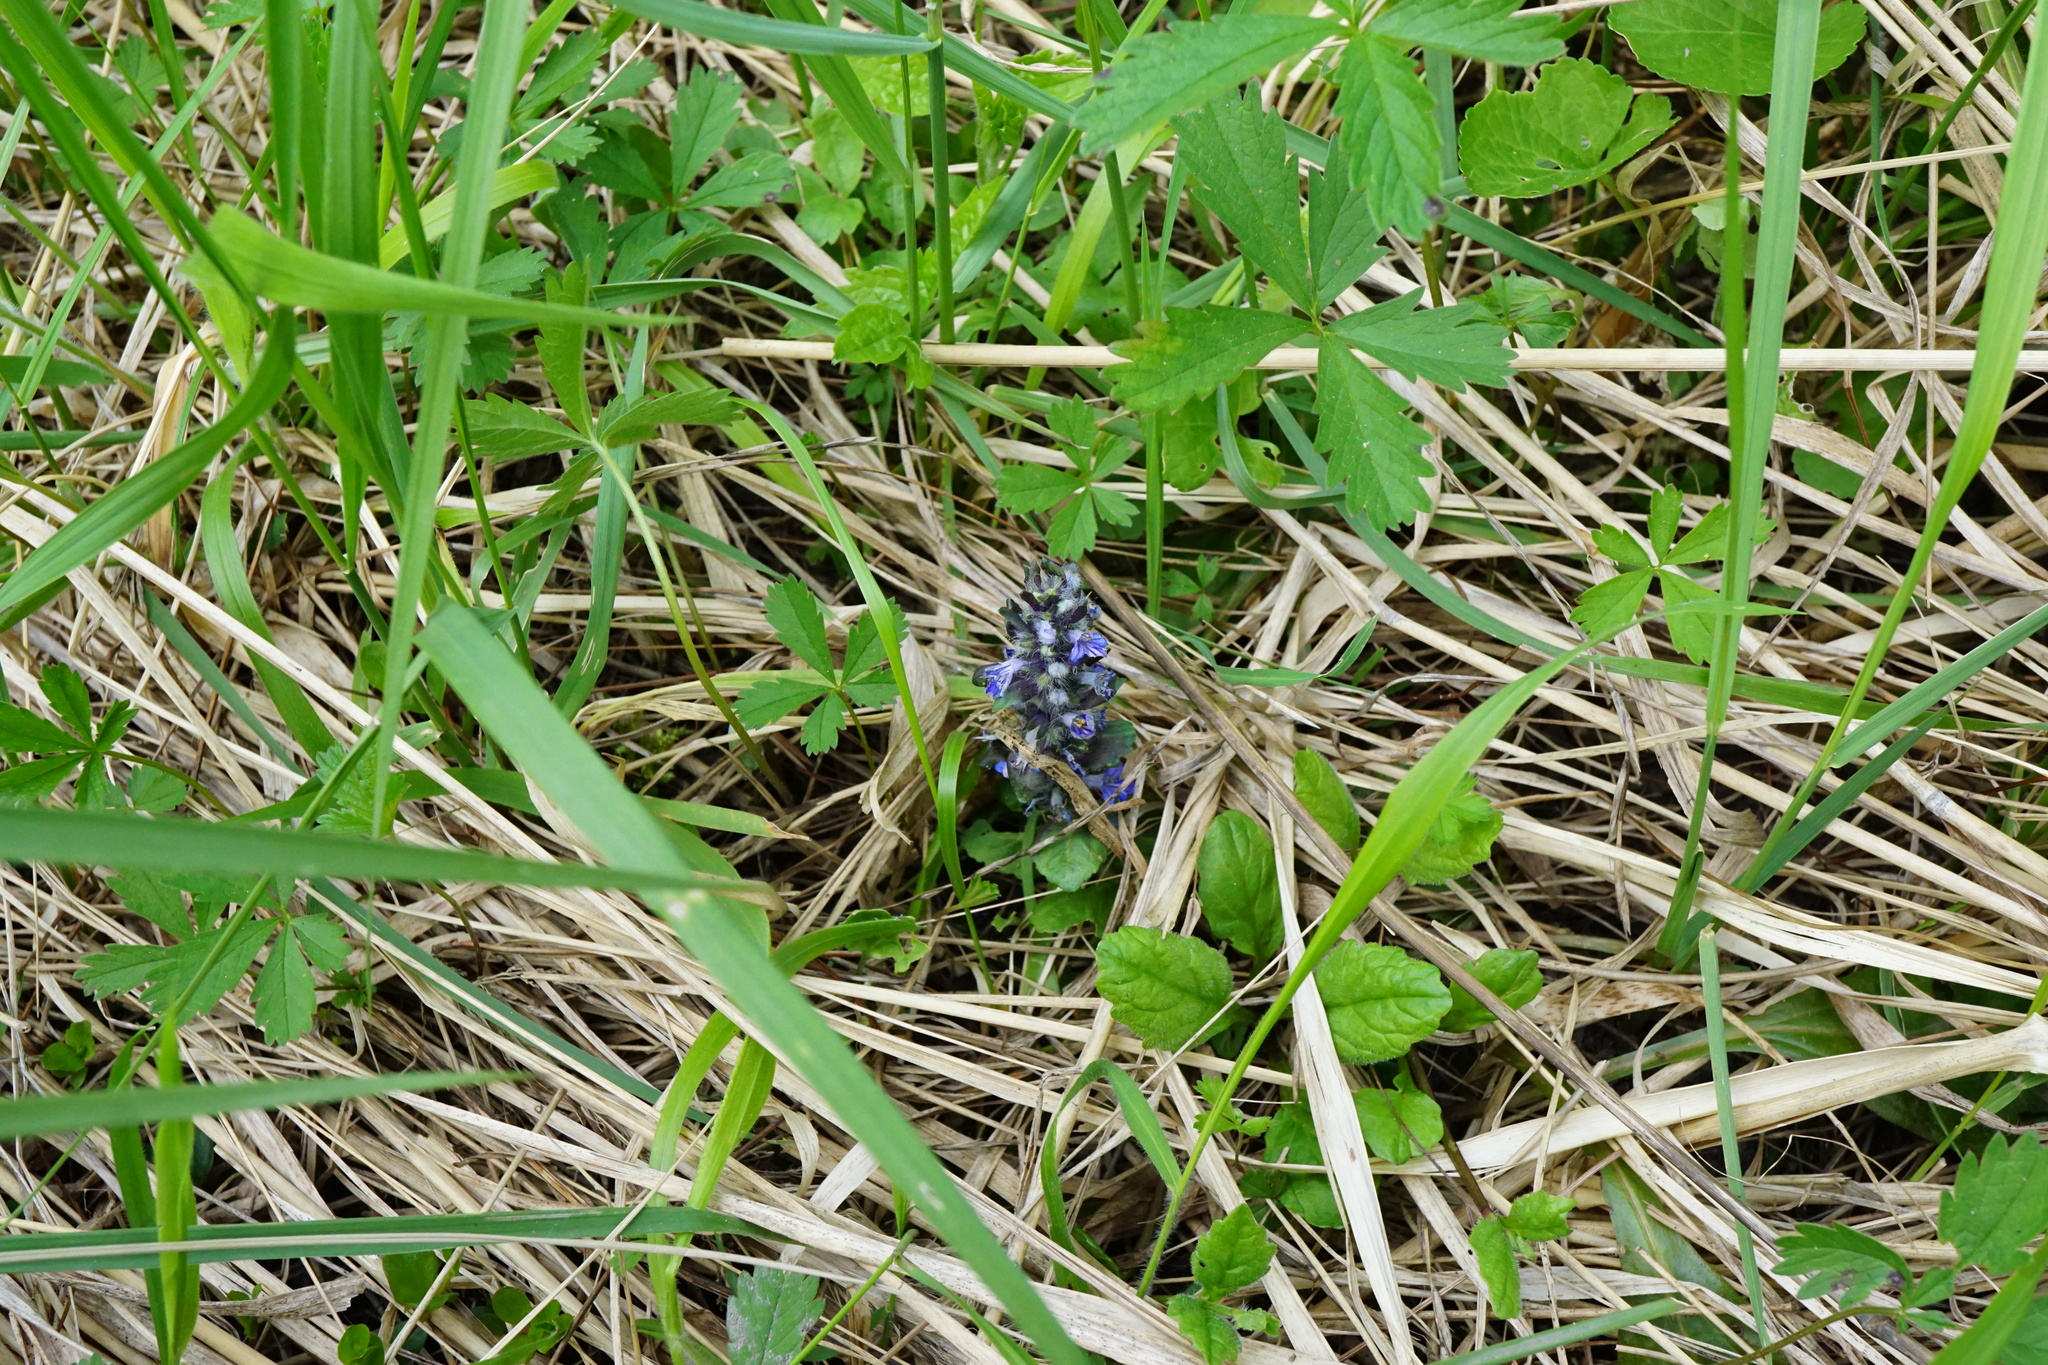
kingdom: Plantae
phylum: Tracheophyta
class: Magnoliopsida
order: Lamiales
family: Lamiaceae
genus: Ajuga
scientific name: Ajuga reptans
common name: Bugle
